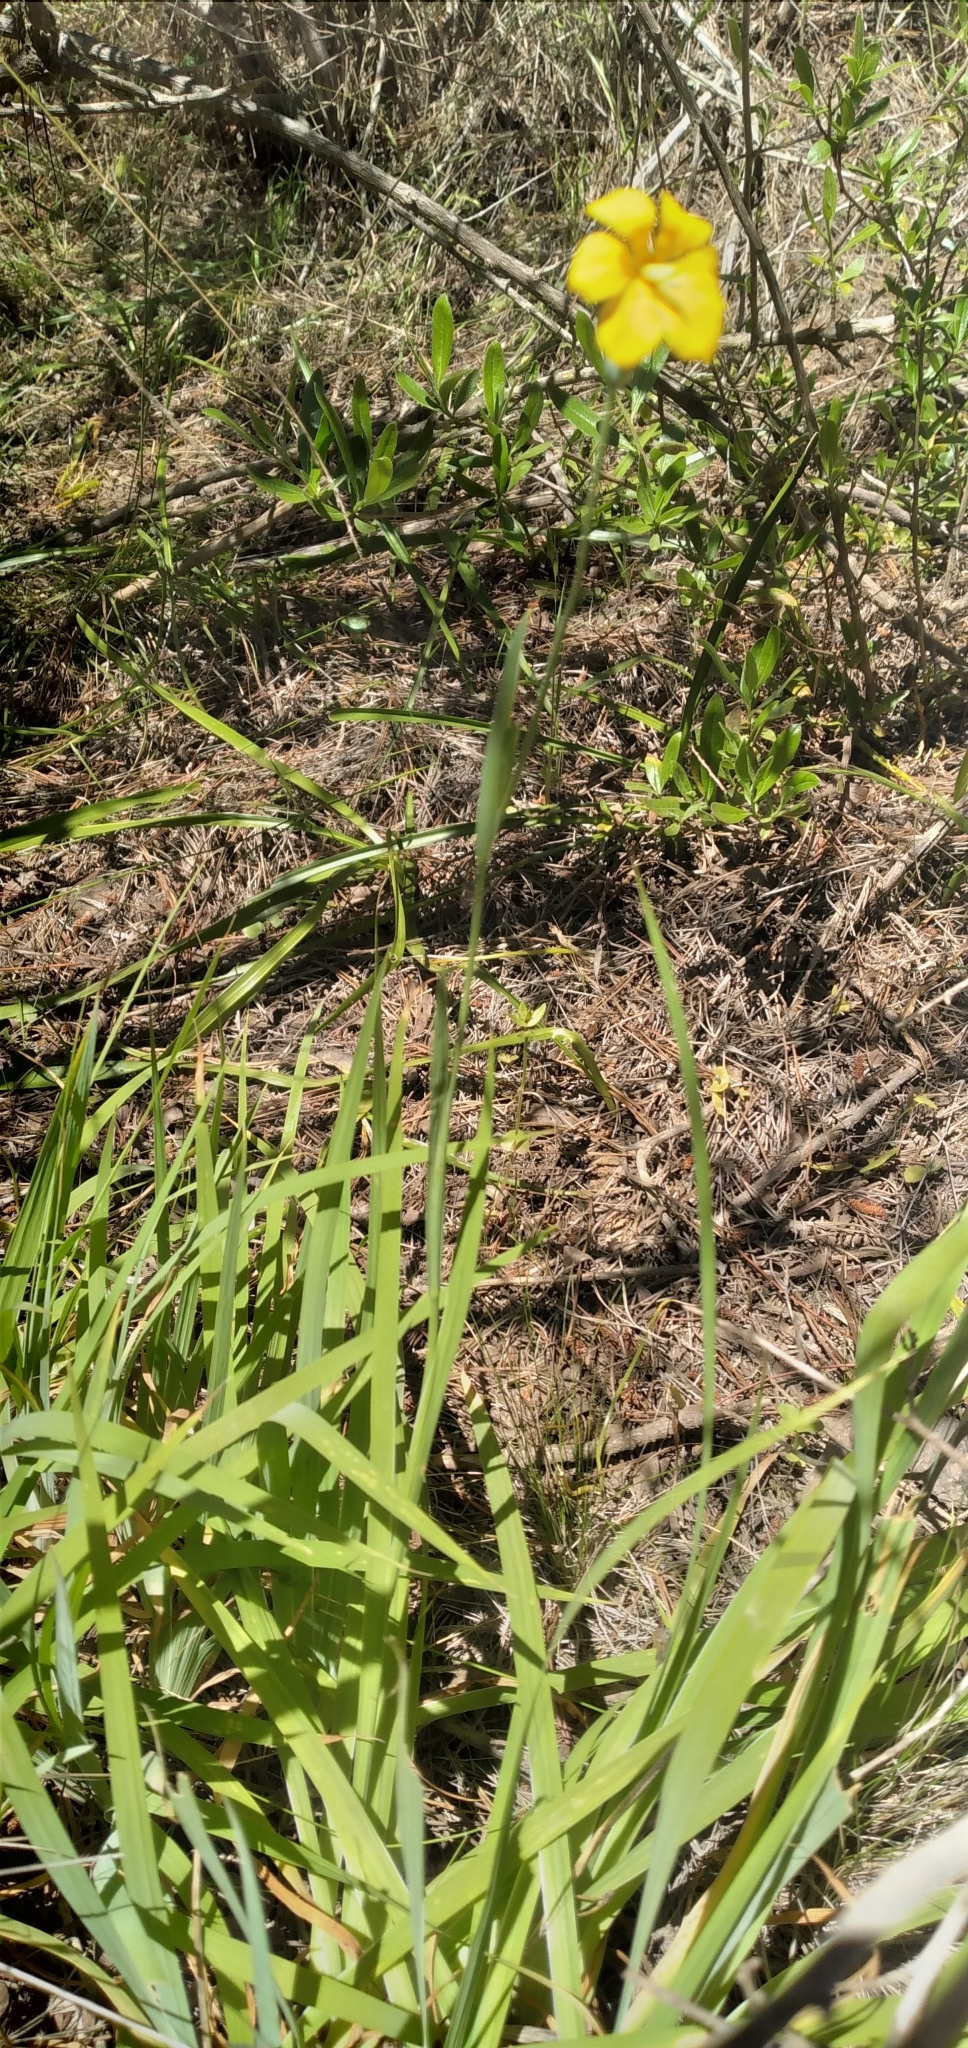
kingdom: Plantae
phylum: Tracheophyta
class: Liliopsida
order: Asparagales
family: Iridaceae
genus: Solenomelus
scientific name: Solenomelus pedunculatus
